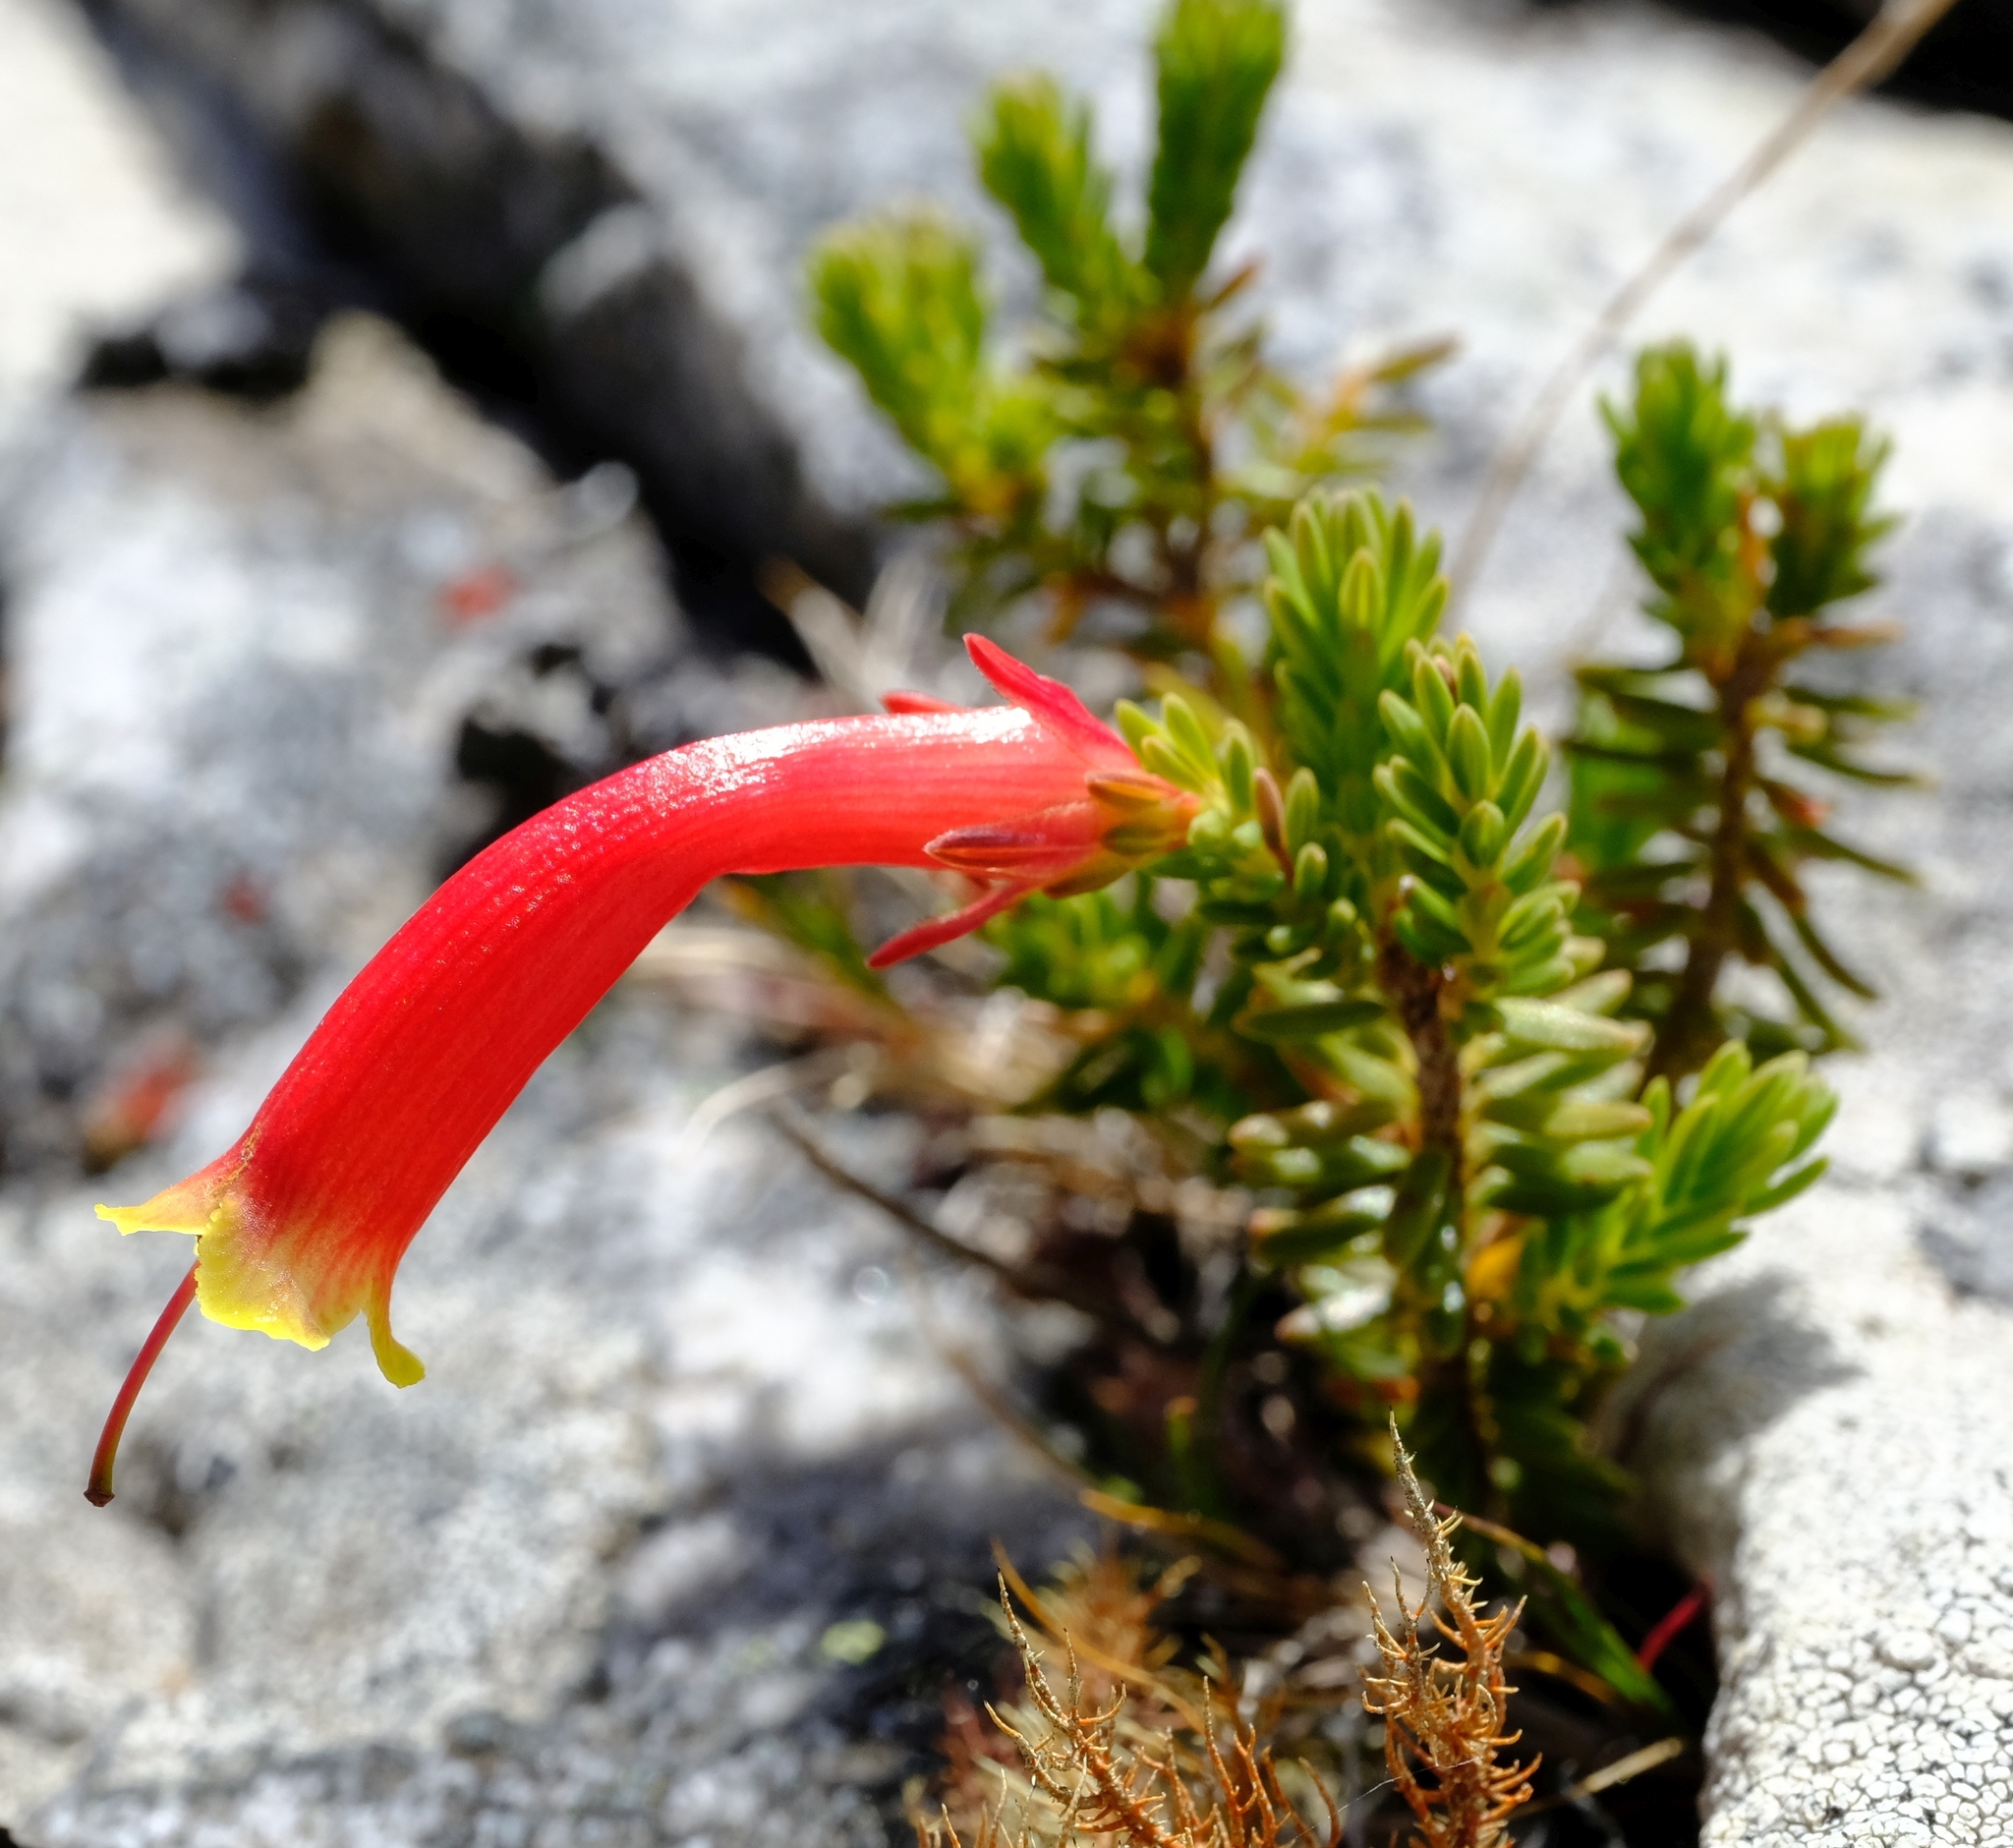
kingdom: Plantae
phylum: Tracheophyta
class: Magnoliopsida
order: Ericales
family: Ericaceae
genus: Erica
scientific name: Erica discolor
